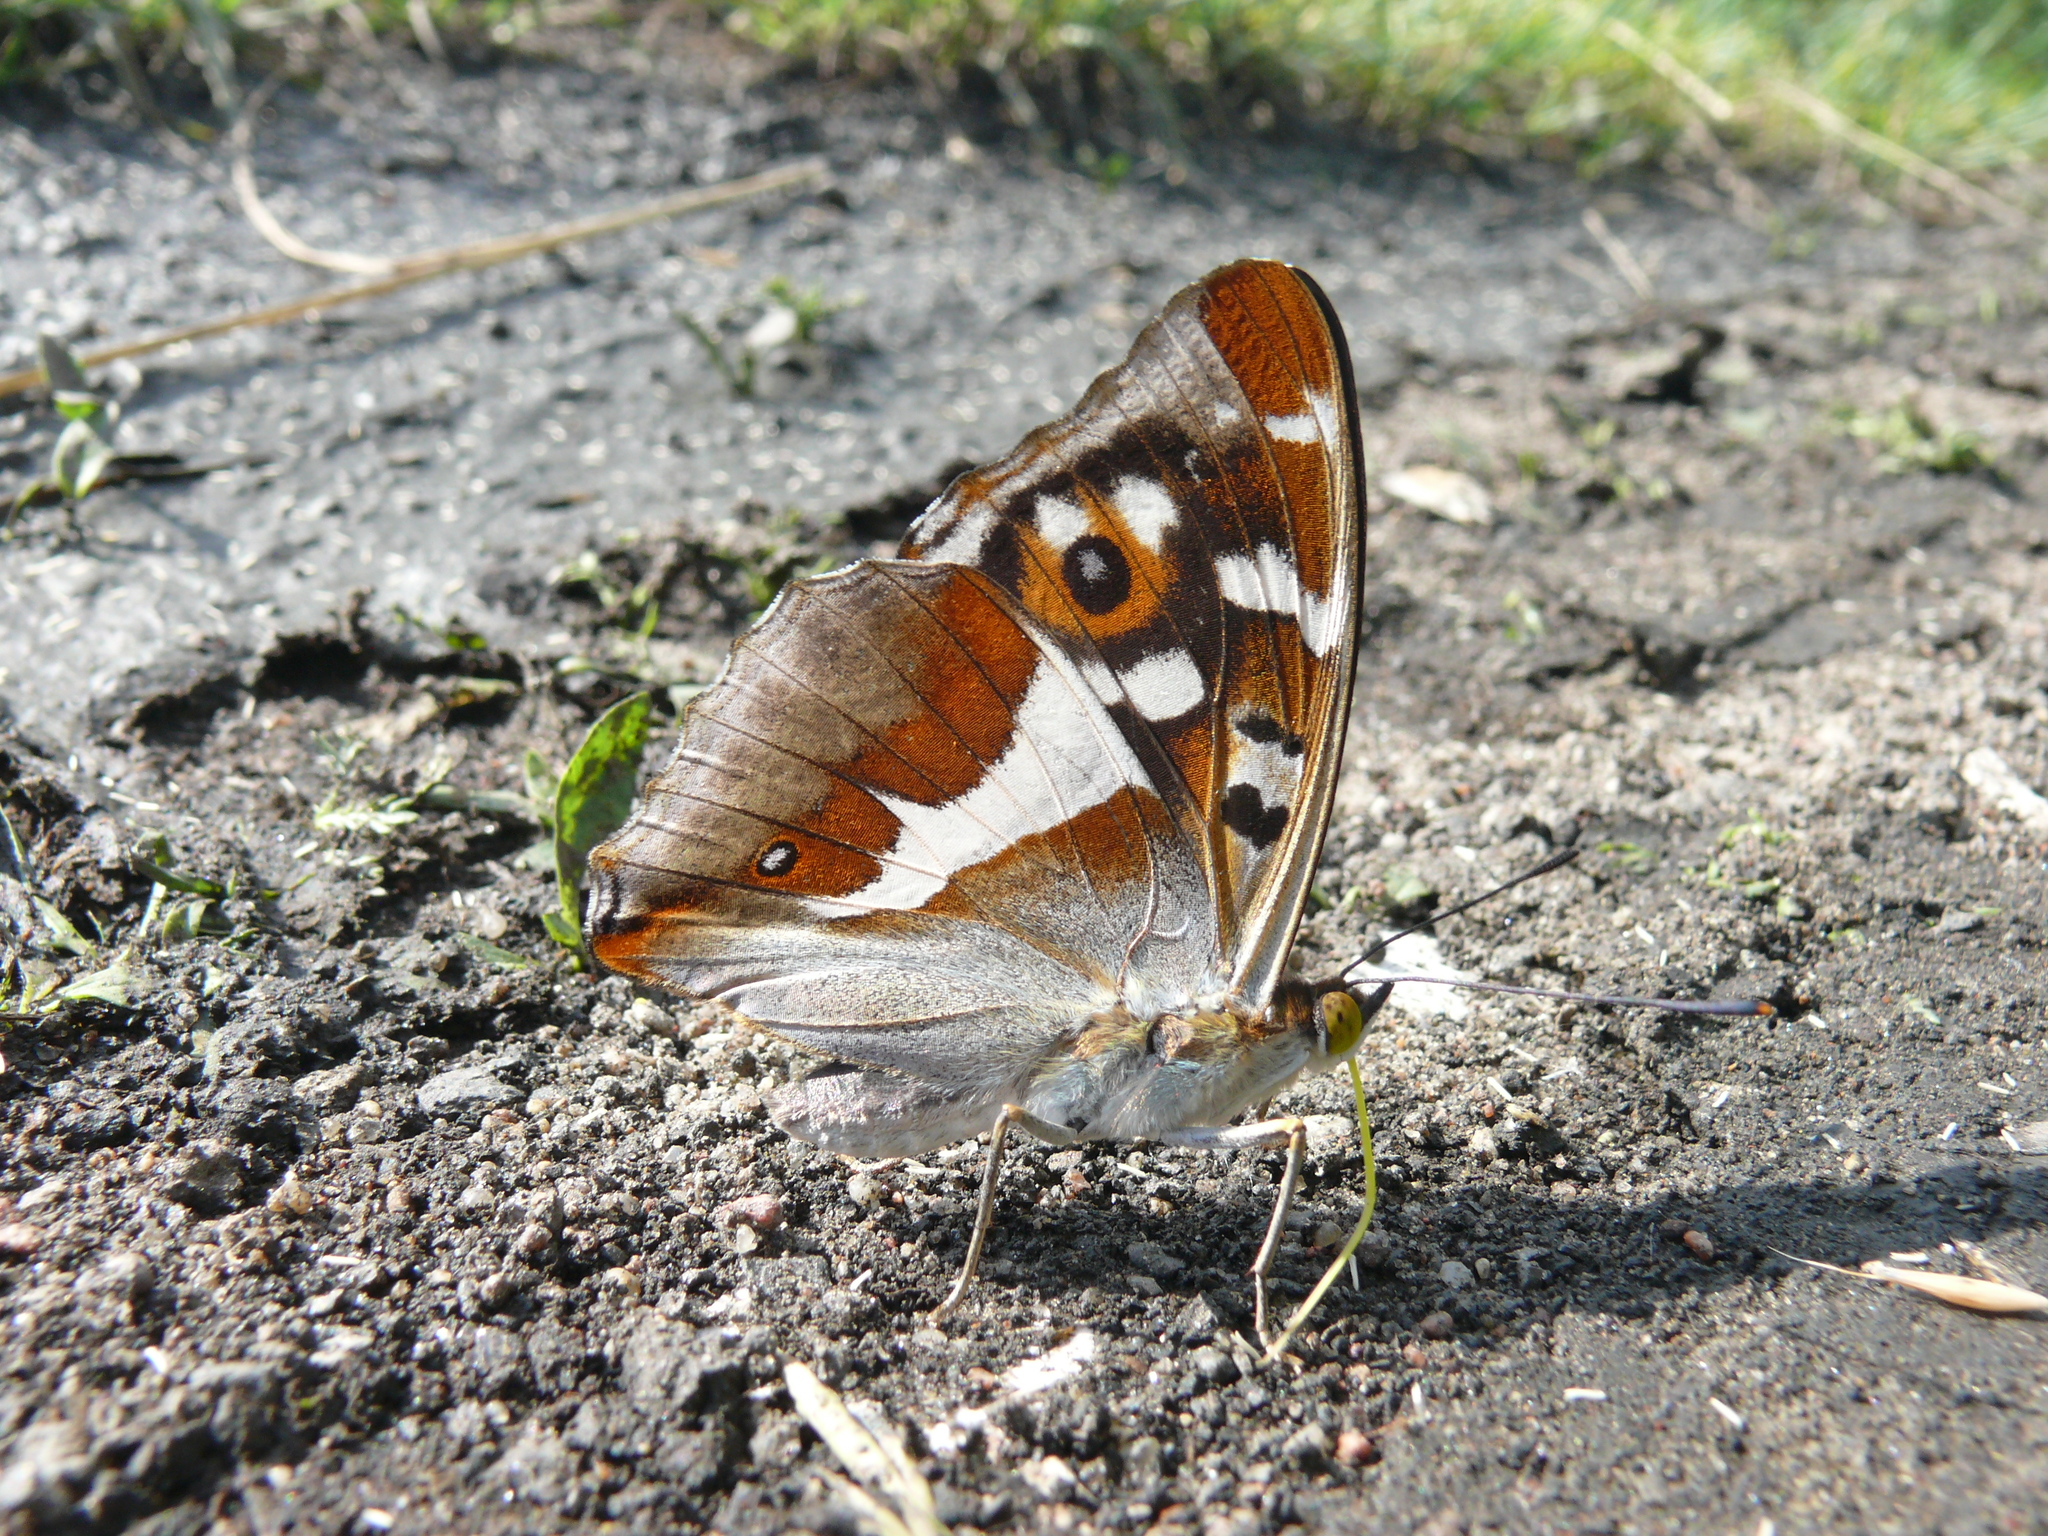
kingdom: Animalia
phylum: Arthropoda
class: Insecta
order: Lepidoptera
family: Nymphalidae
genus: Apatura
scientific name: Apatura iris
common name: Purple emperor
